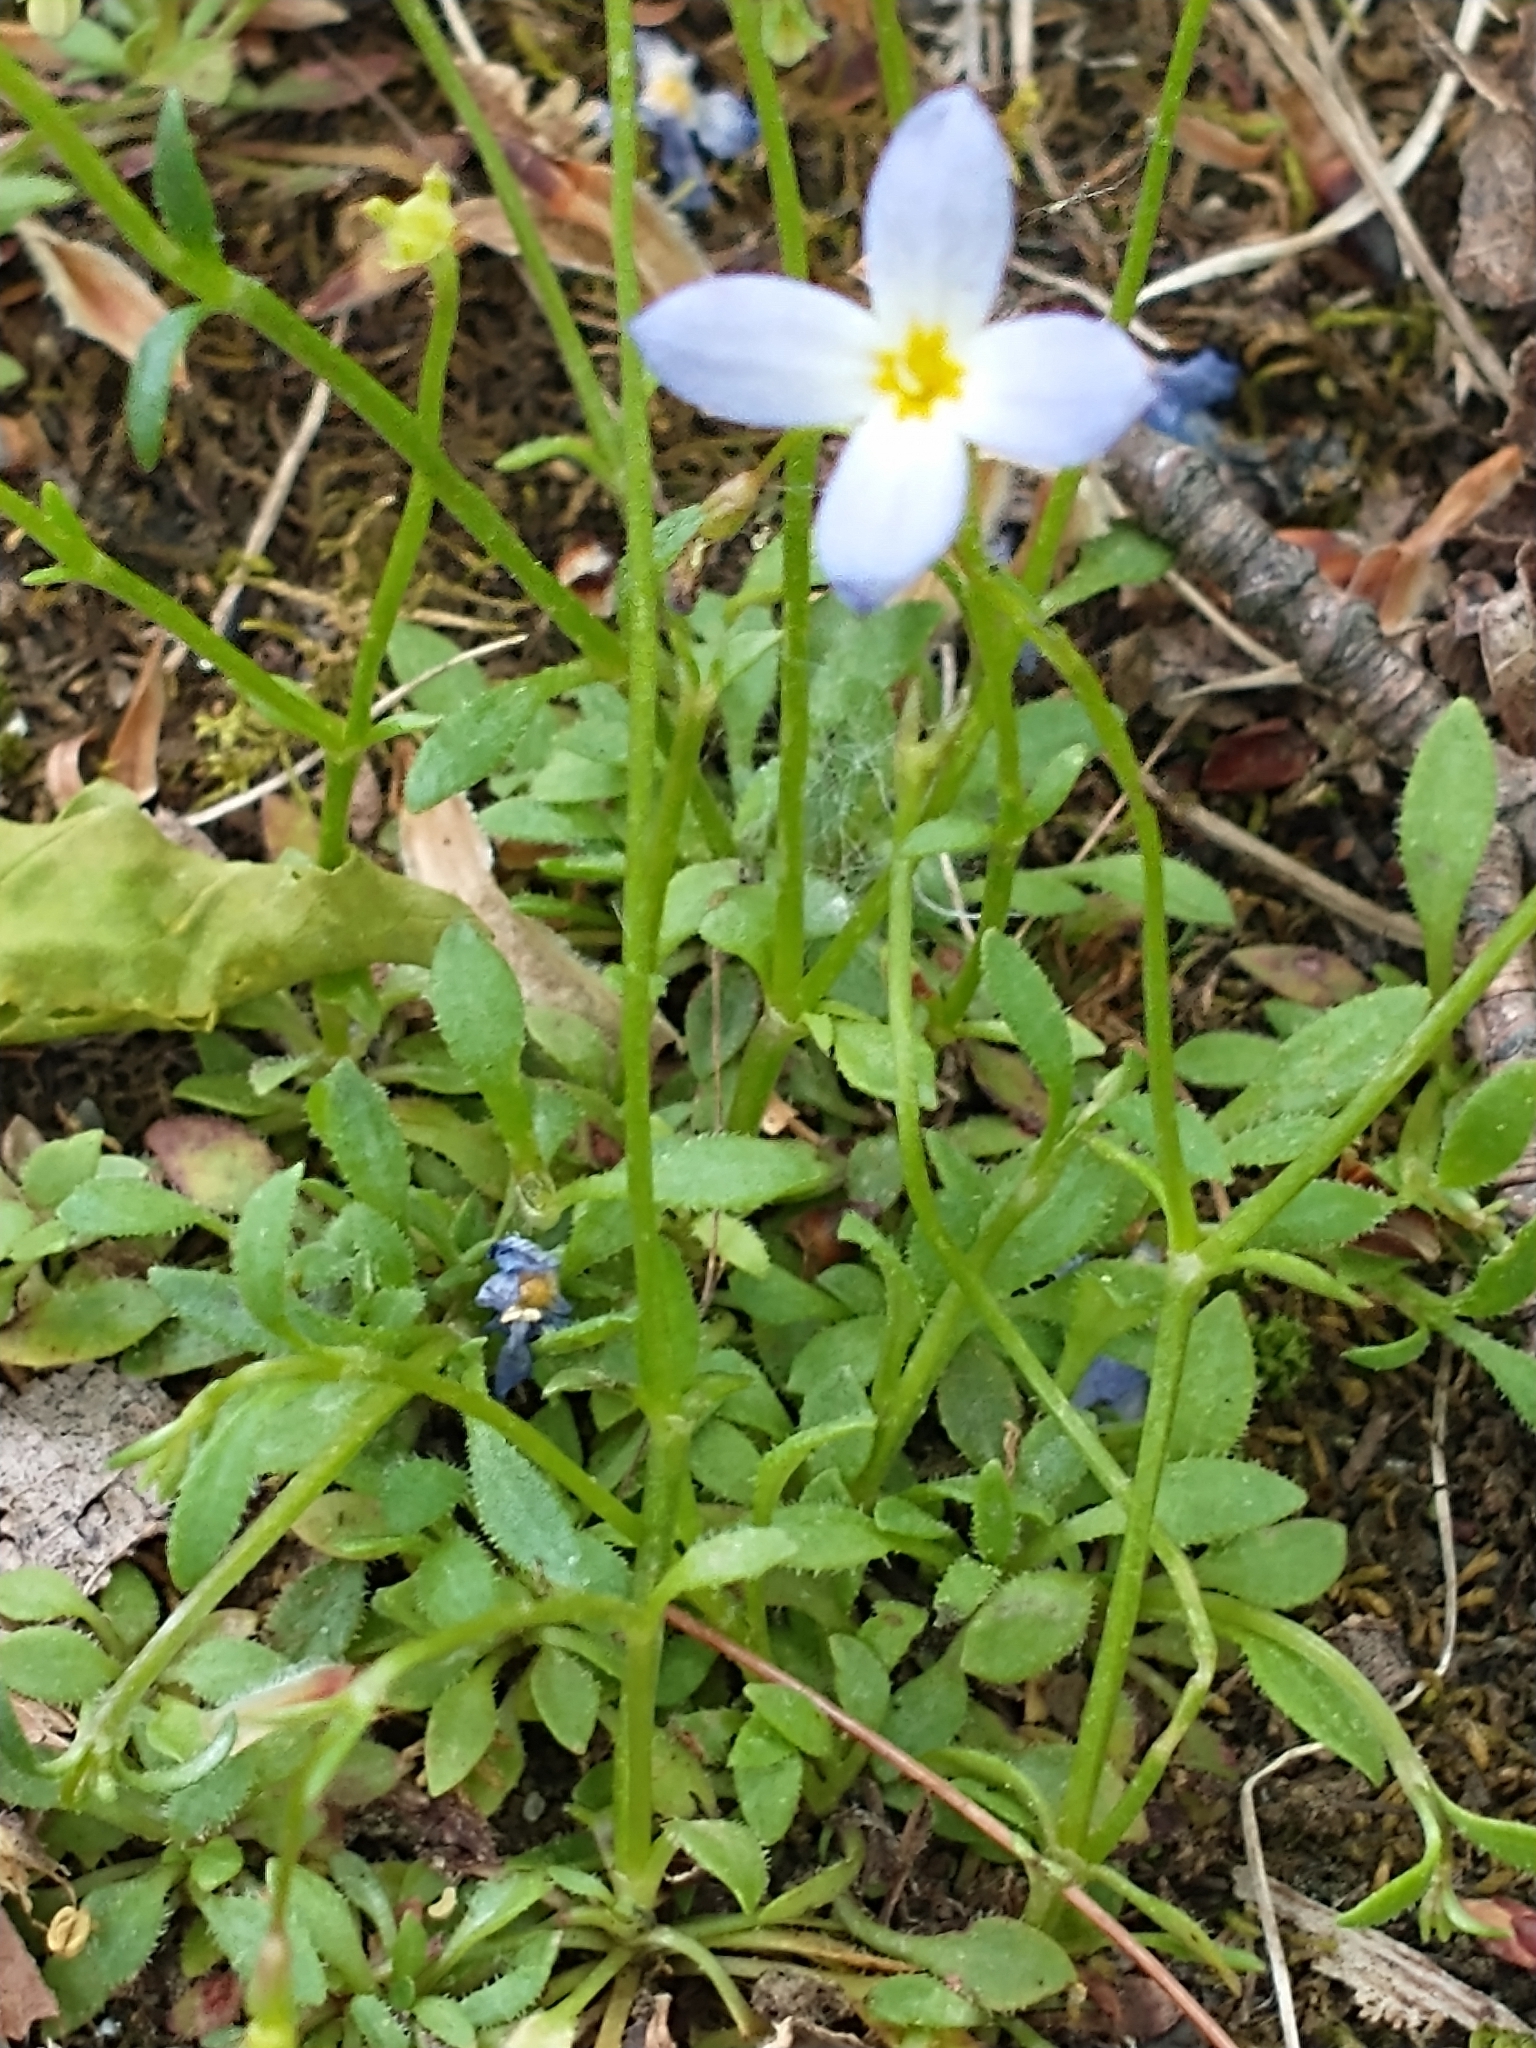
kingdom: Plantae
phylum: Tracheophyta
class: Magnoliopsida
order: Gentianales
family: Rubiaceae
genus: Houstonia
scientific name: Houstonia caerulea
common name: Bluets
